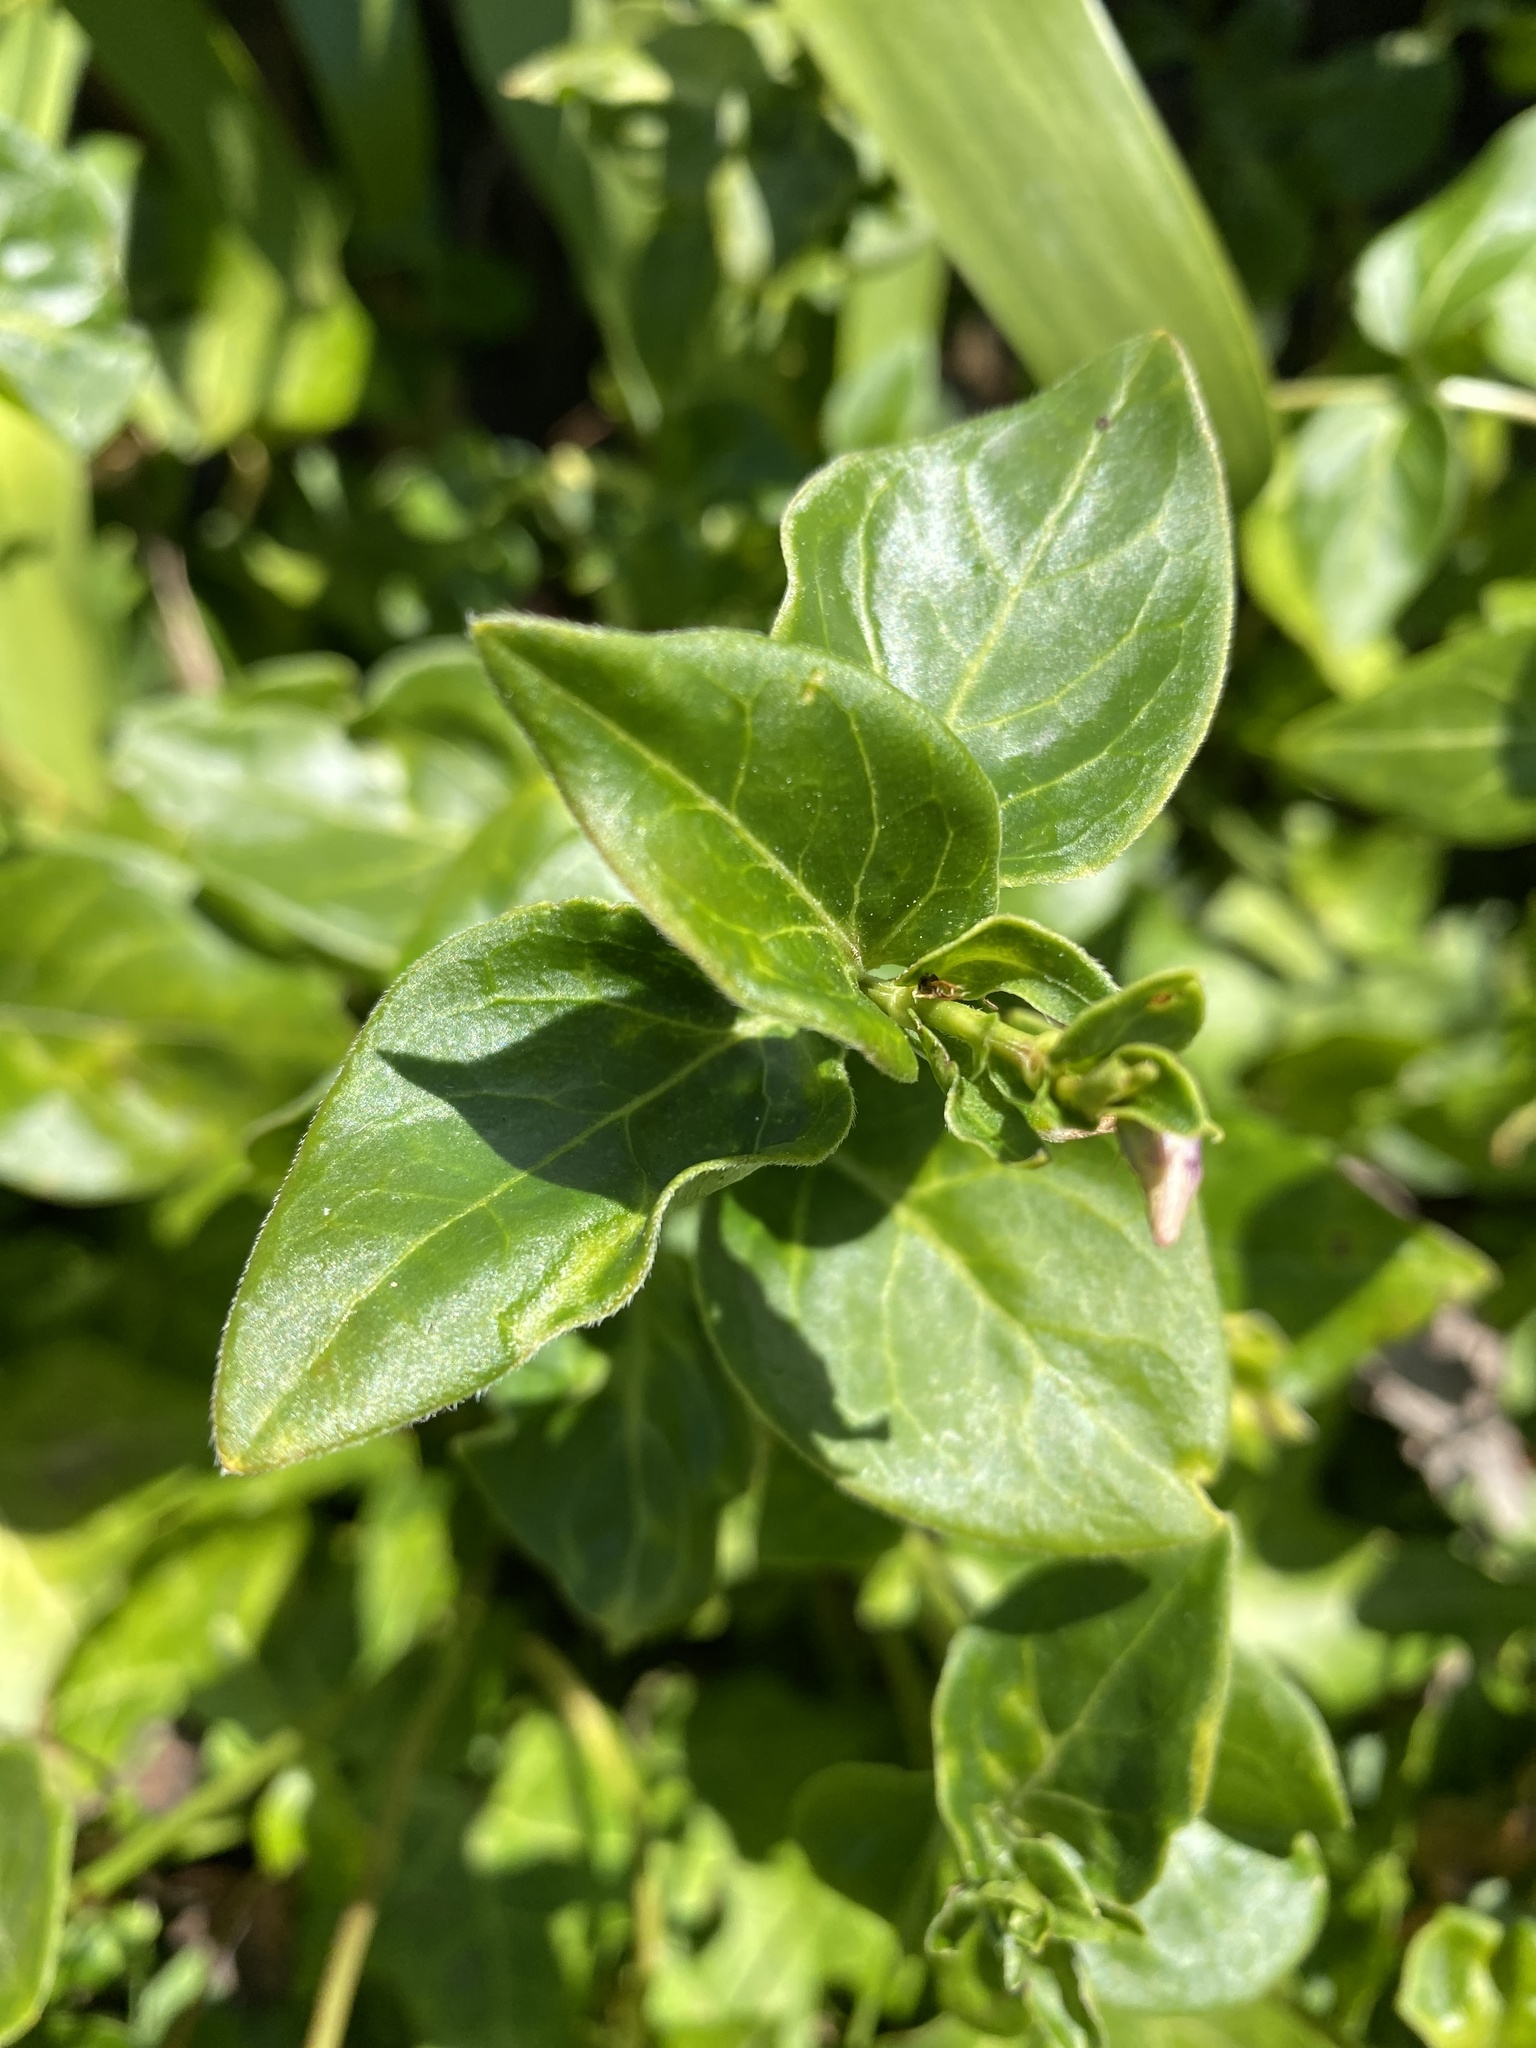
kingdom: Plantae
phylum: Tracheophyta
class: Magnoliopsida
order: Gentianales
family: Apocynaceae
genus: Vinca
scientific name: Vinca major
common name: Greater periwinkle
